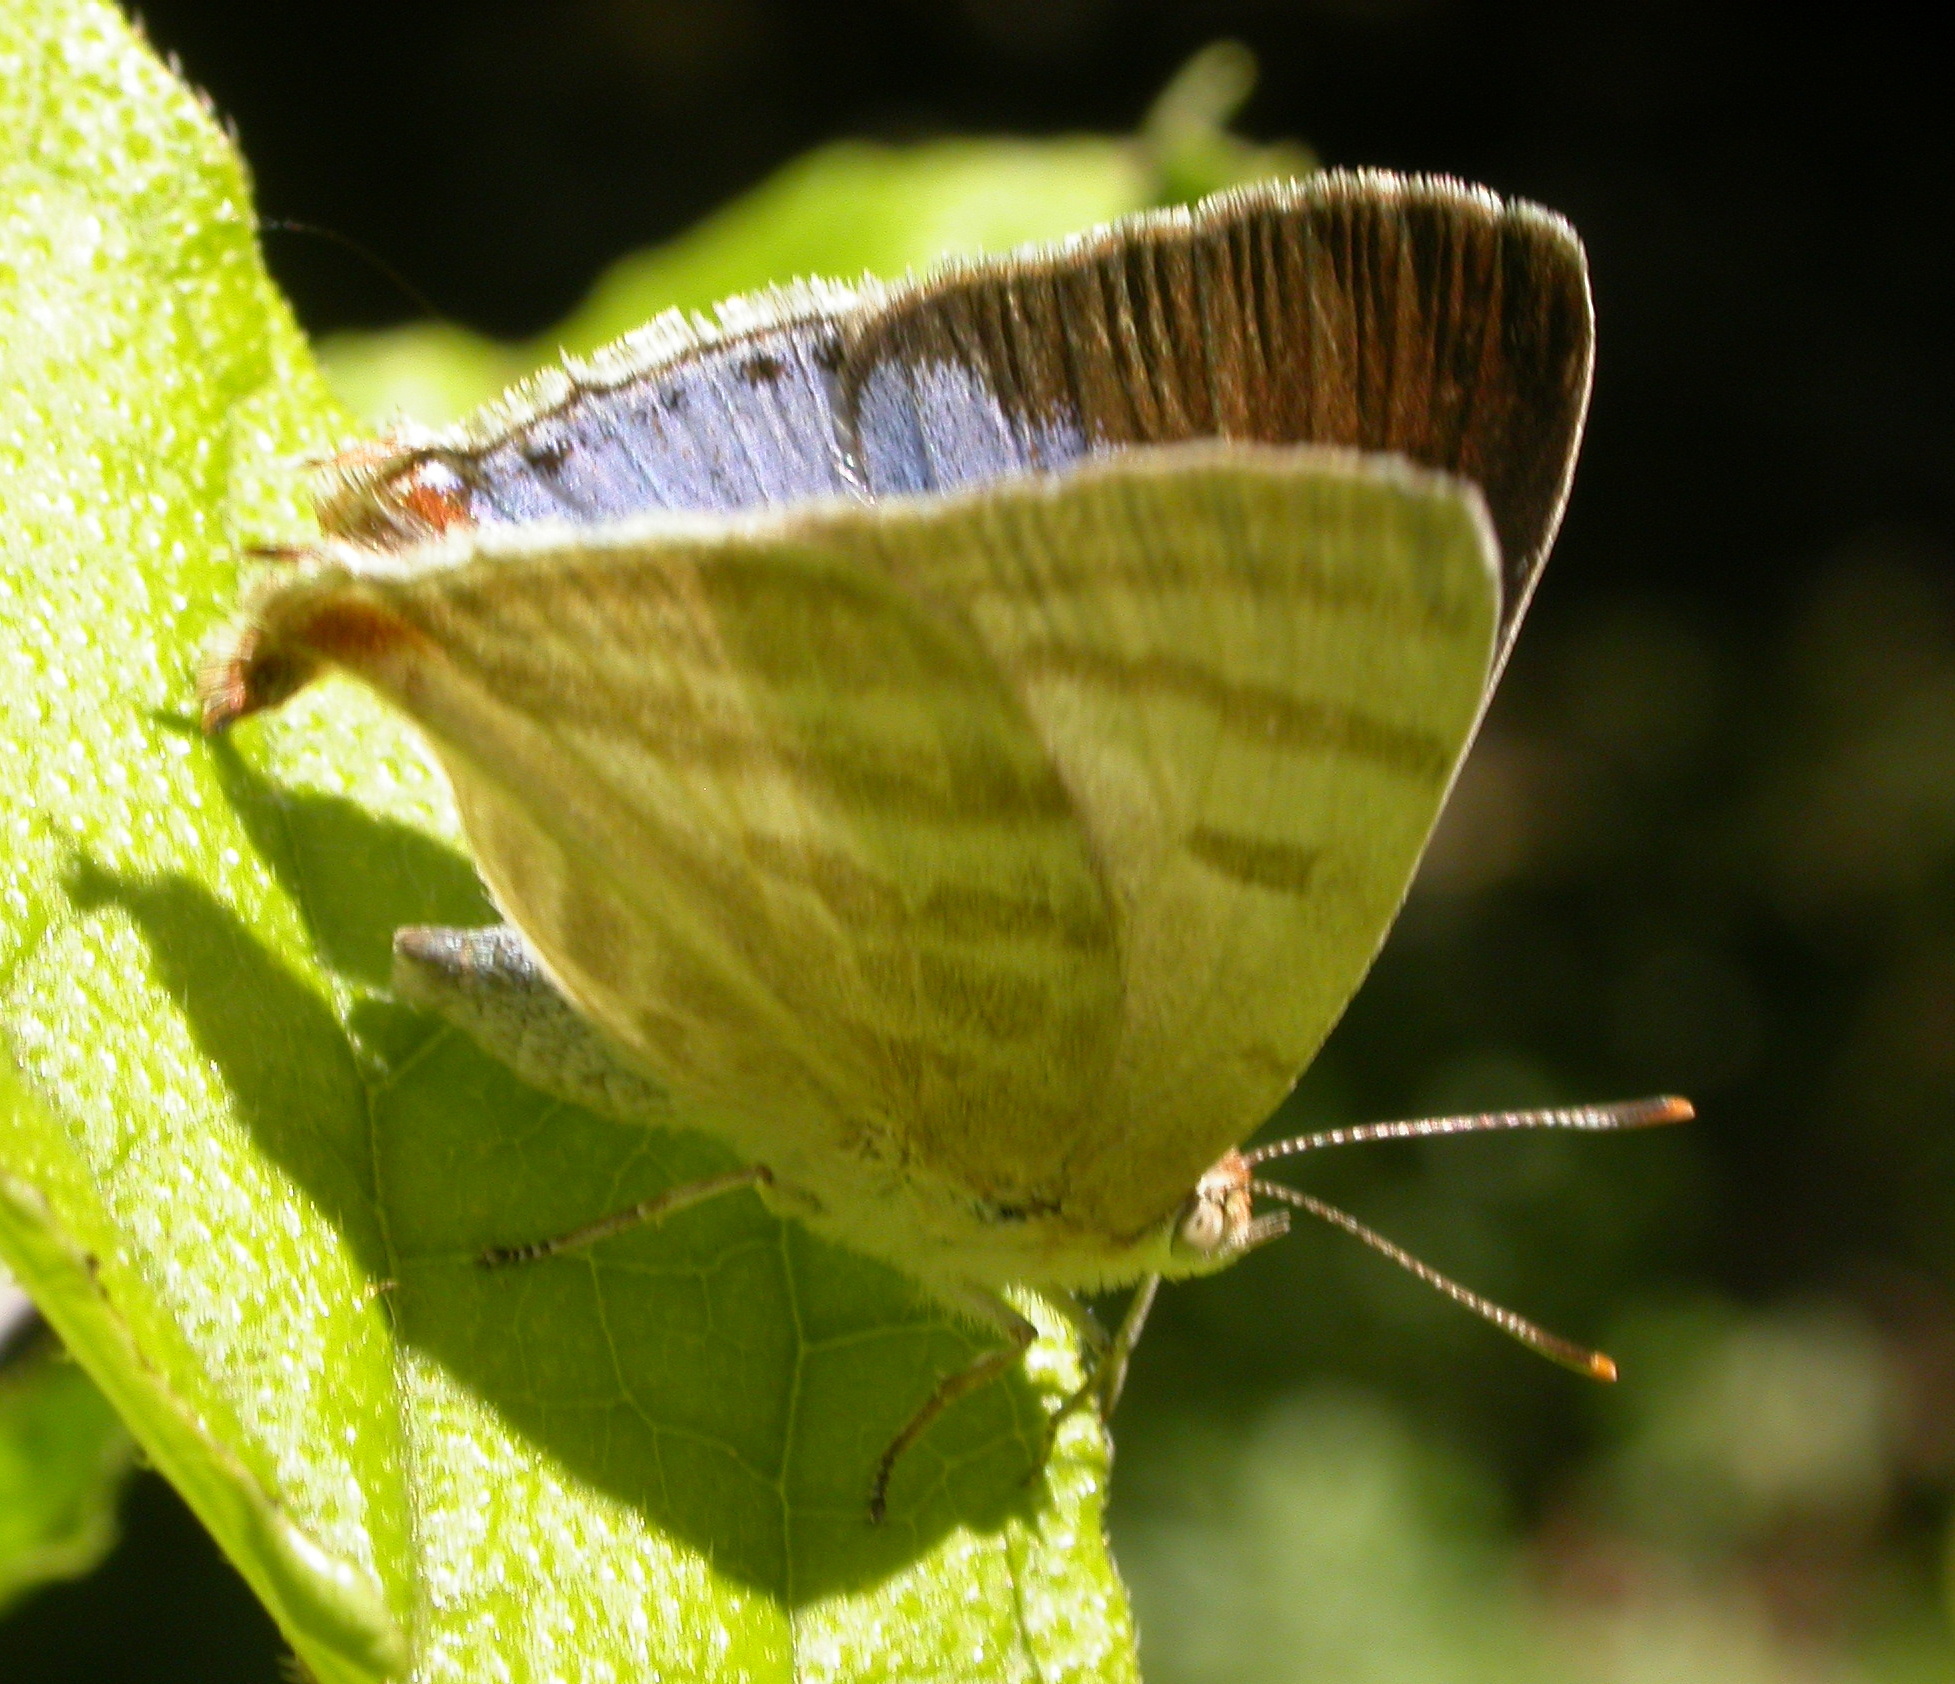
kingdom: Animalia
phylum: Arthropoda
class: Insecta
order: Lepidoptera
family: Lycaenidae
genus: Dolymorpha
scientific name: Dolymorpha jada
